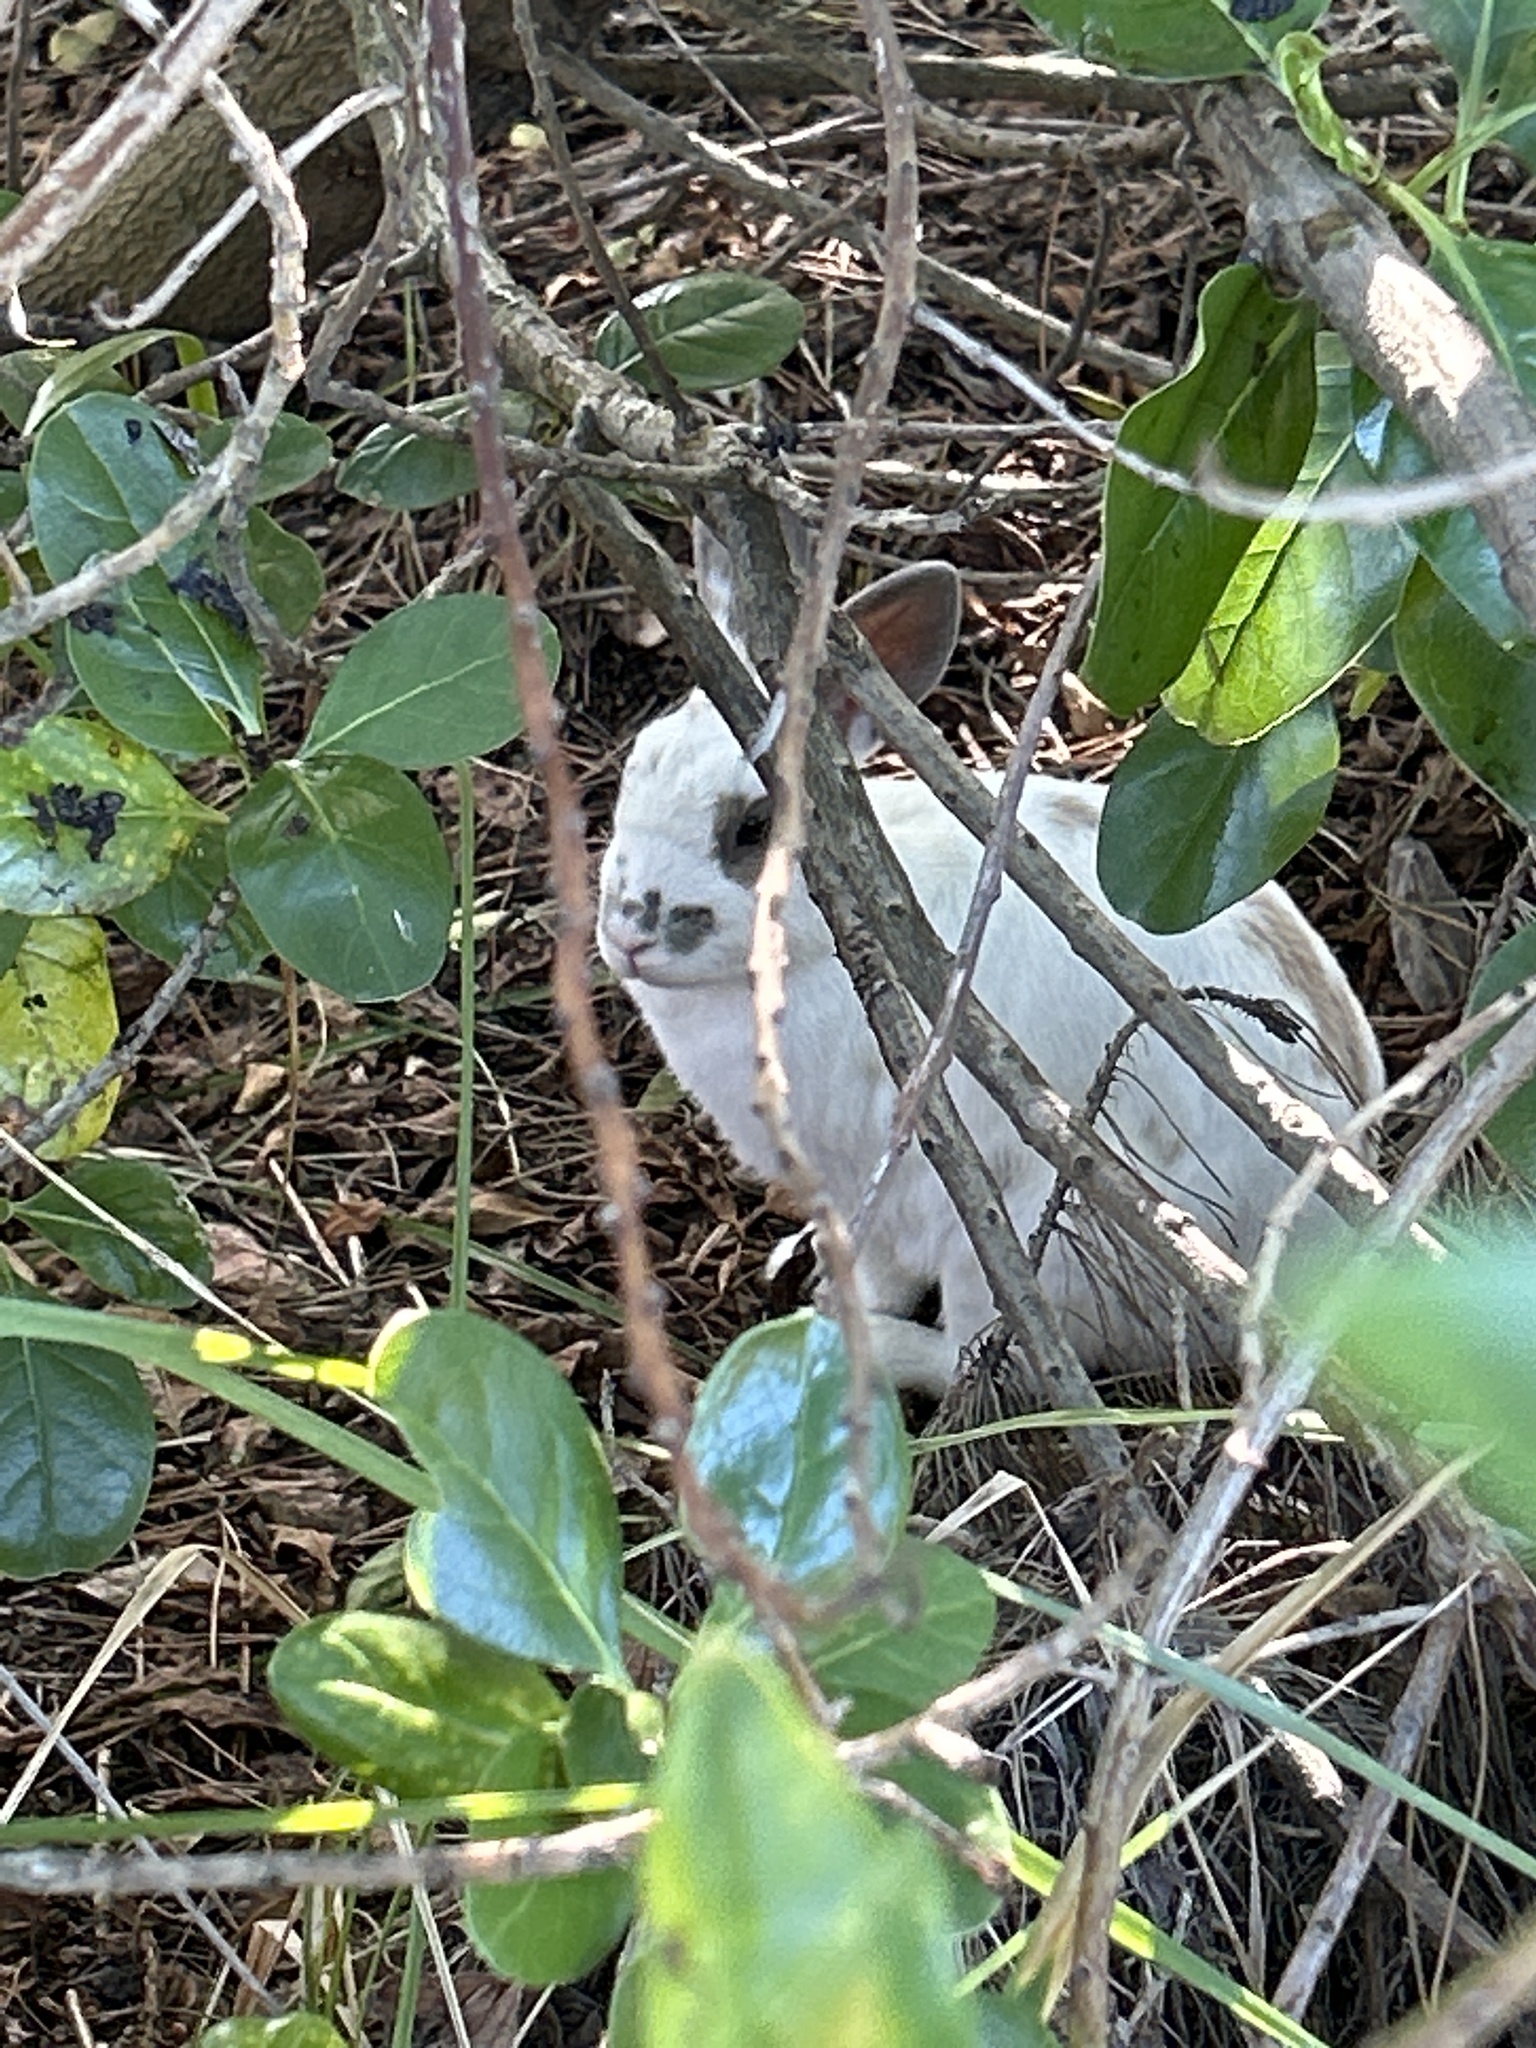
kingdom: Animalia
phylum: Chordata
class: Mammalia
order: Lagomorpha
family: Leporidae
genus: Oryctolagus
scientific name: Oryctolagus cuniculus
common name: European rabbit
